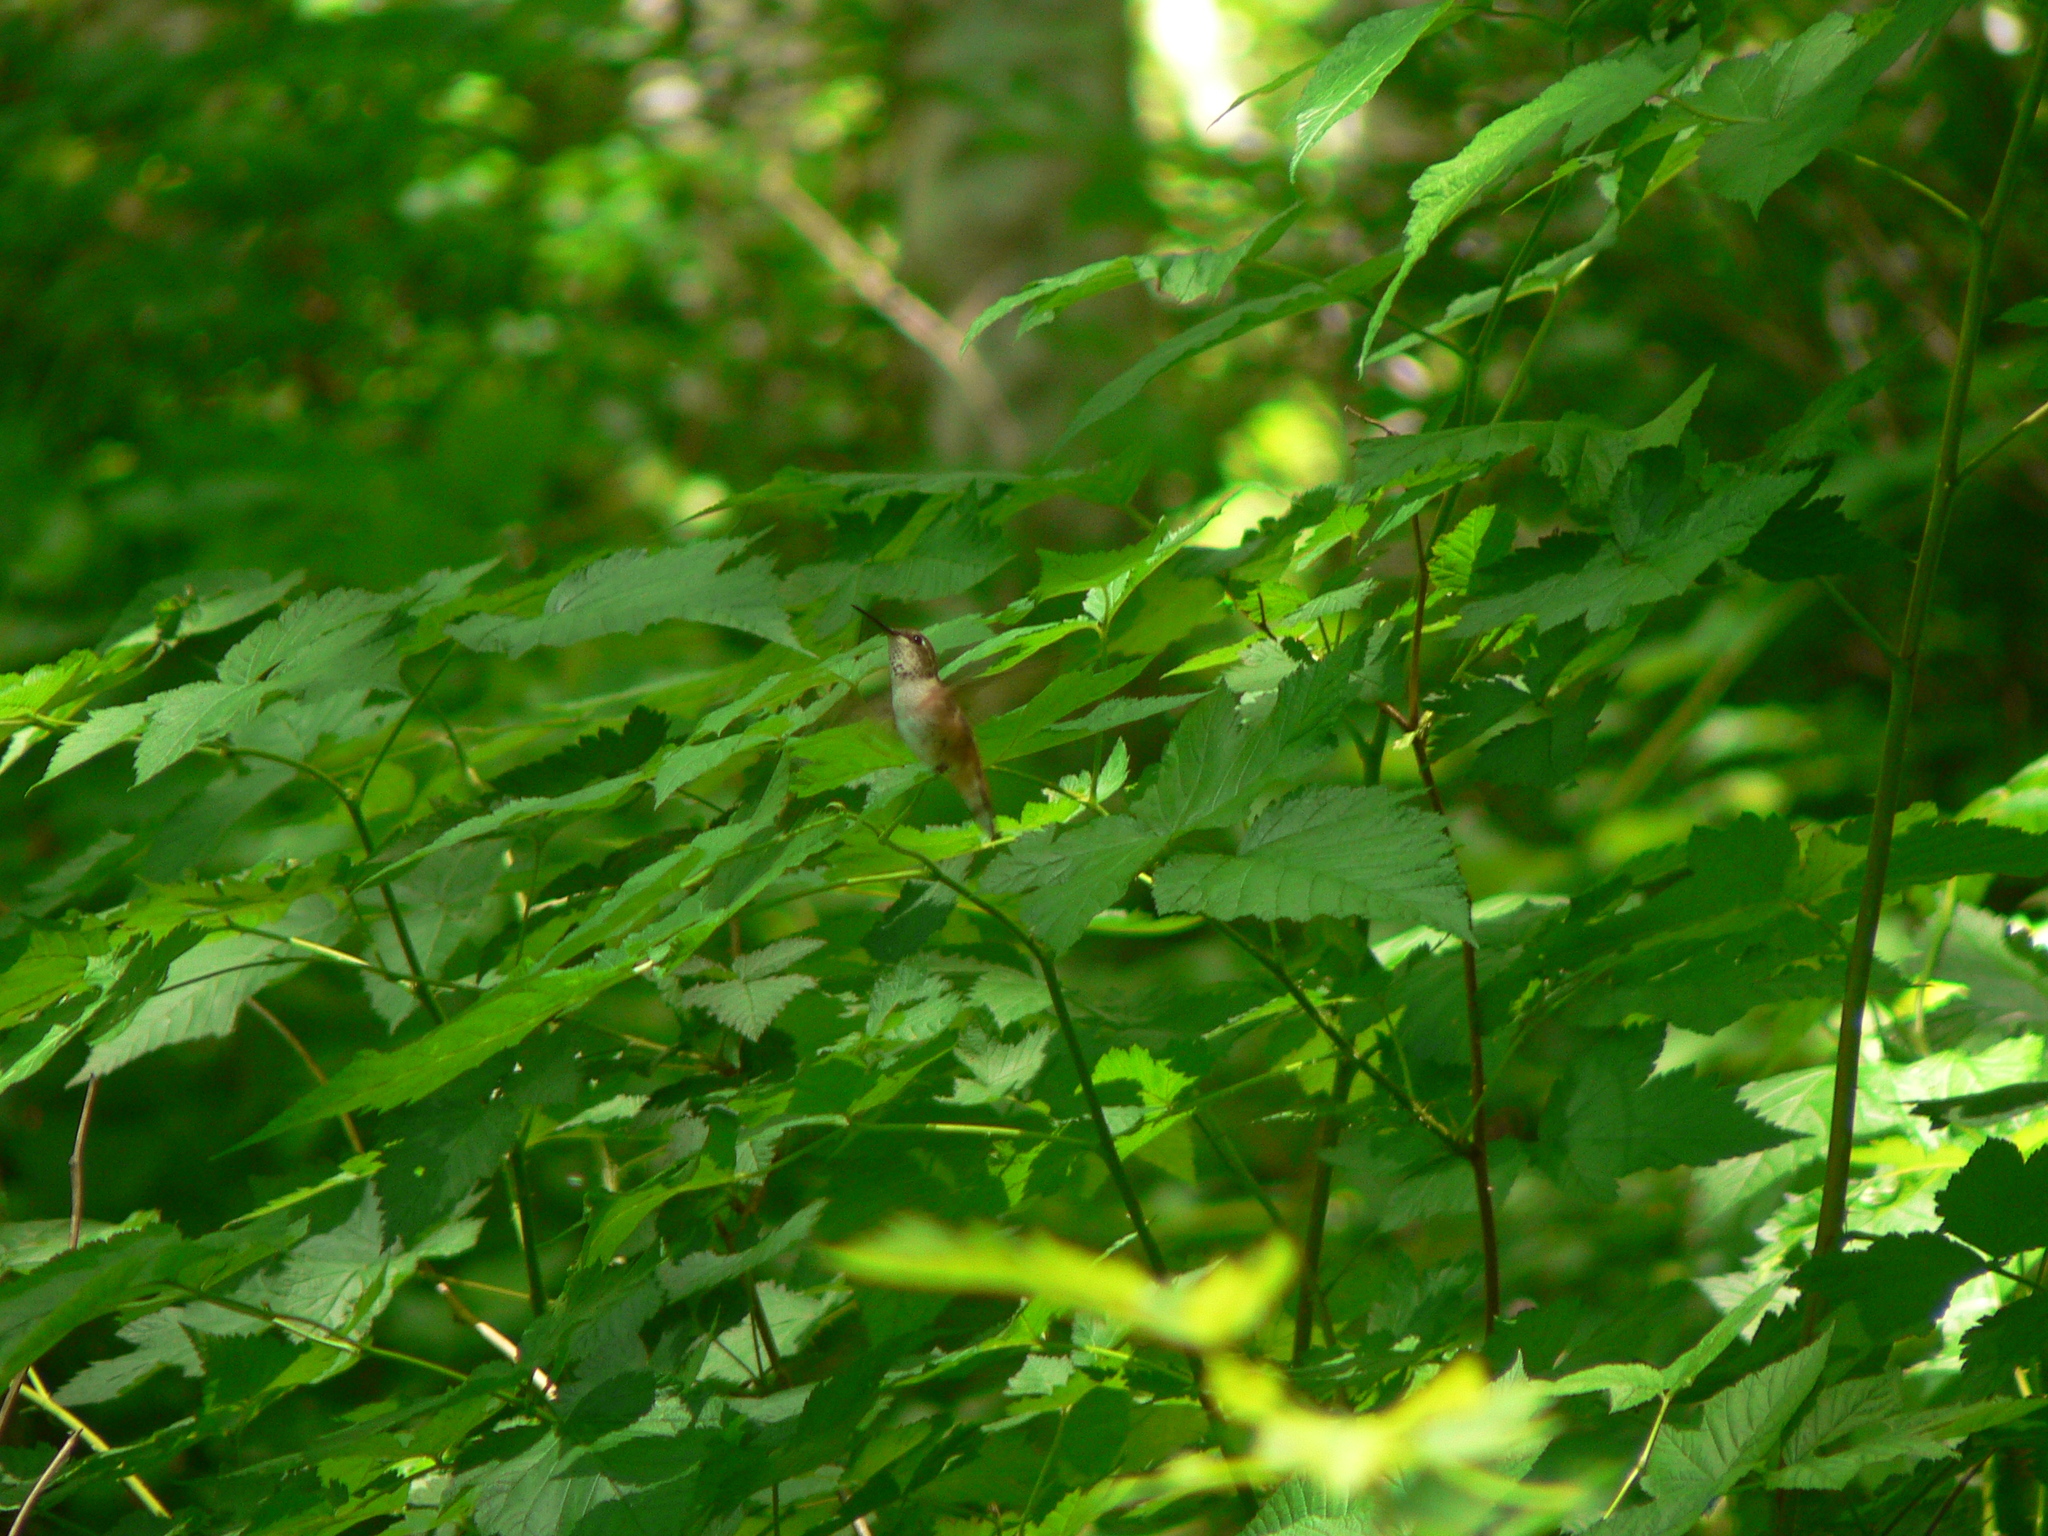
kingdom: Animalia
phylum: Chordata
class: Aves
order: Apodiformes
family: Trochilidae
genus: Selasphorus
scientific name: Selasphorus rufus
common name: Rufous hummingbird
